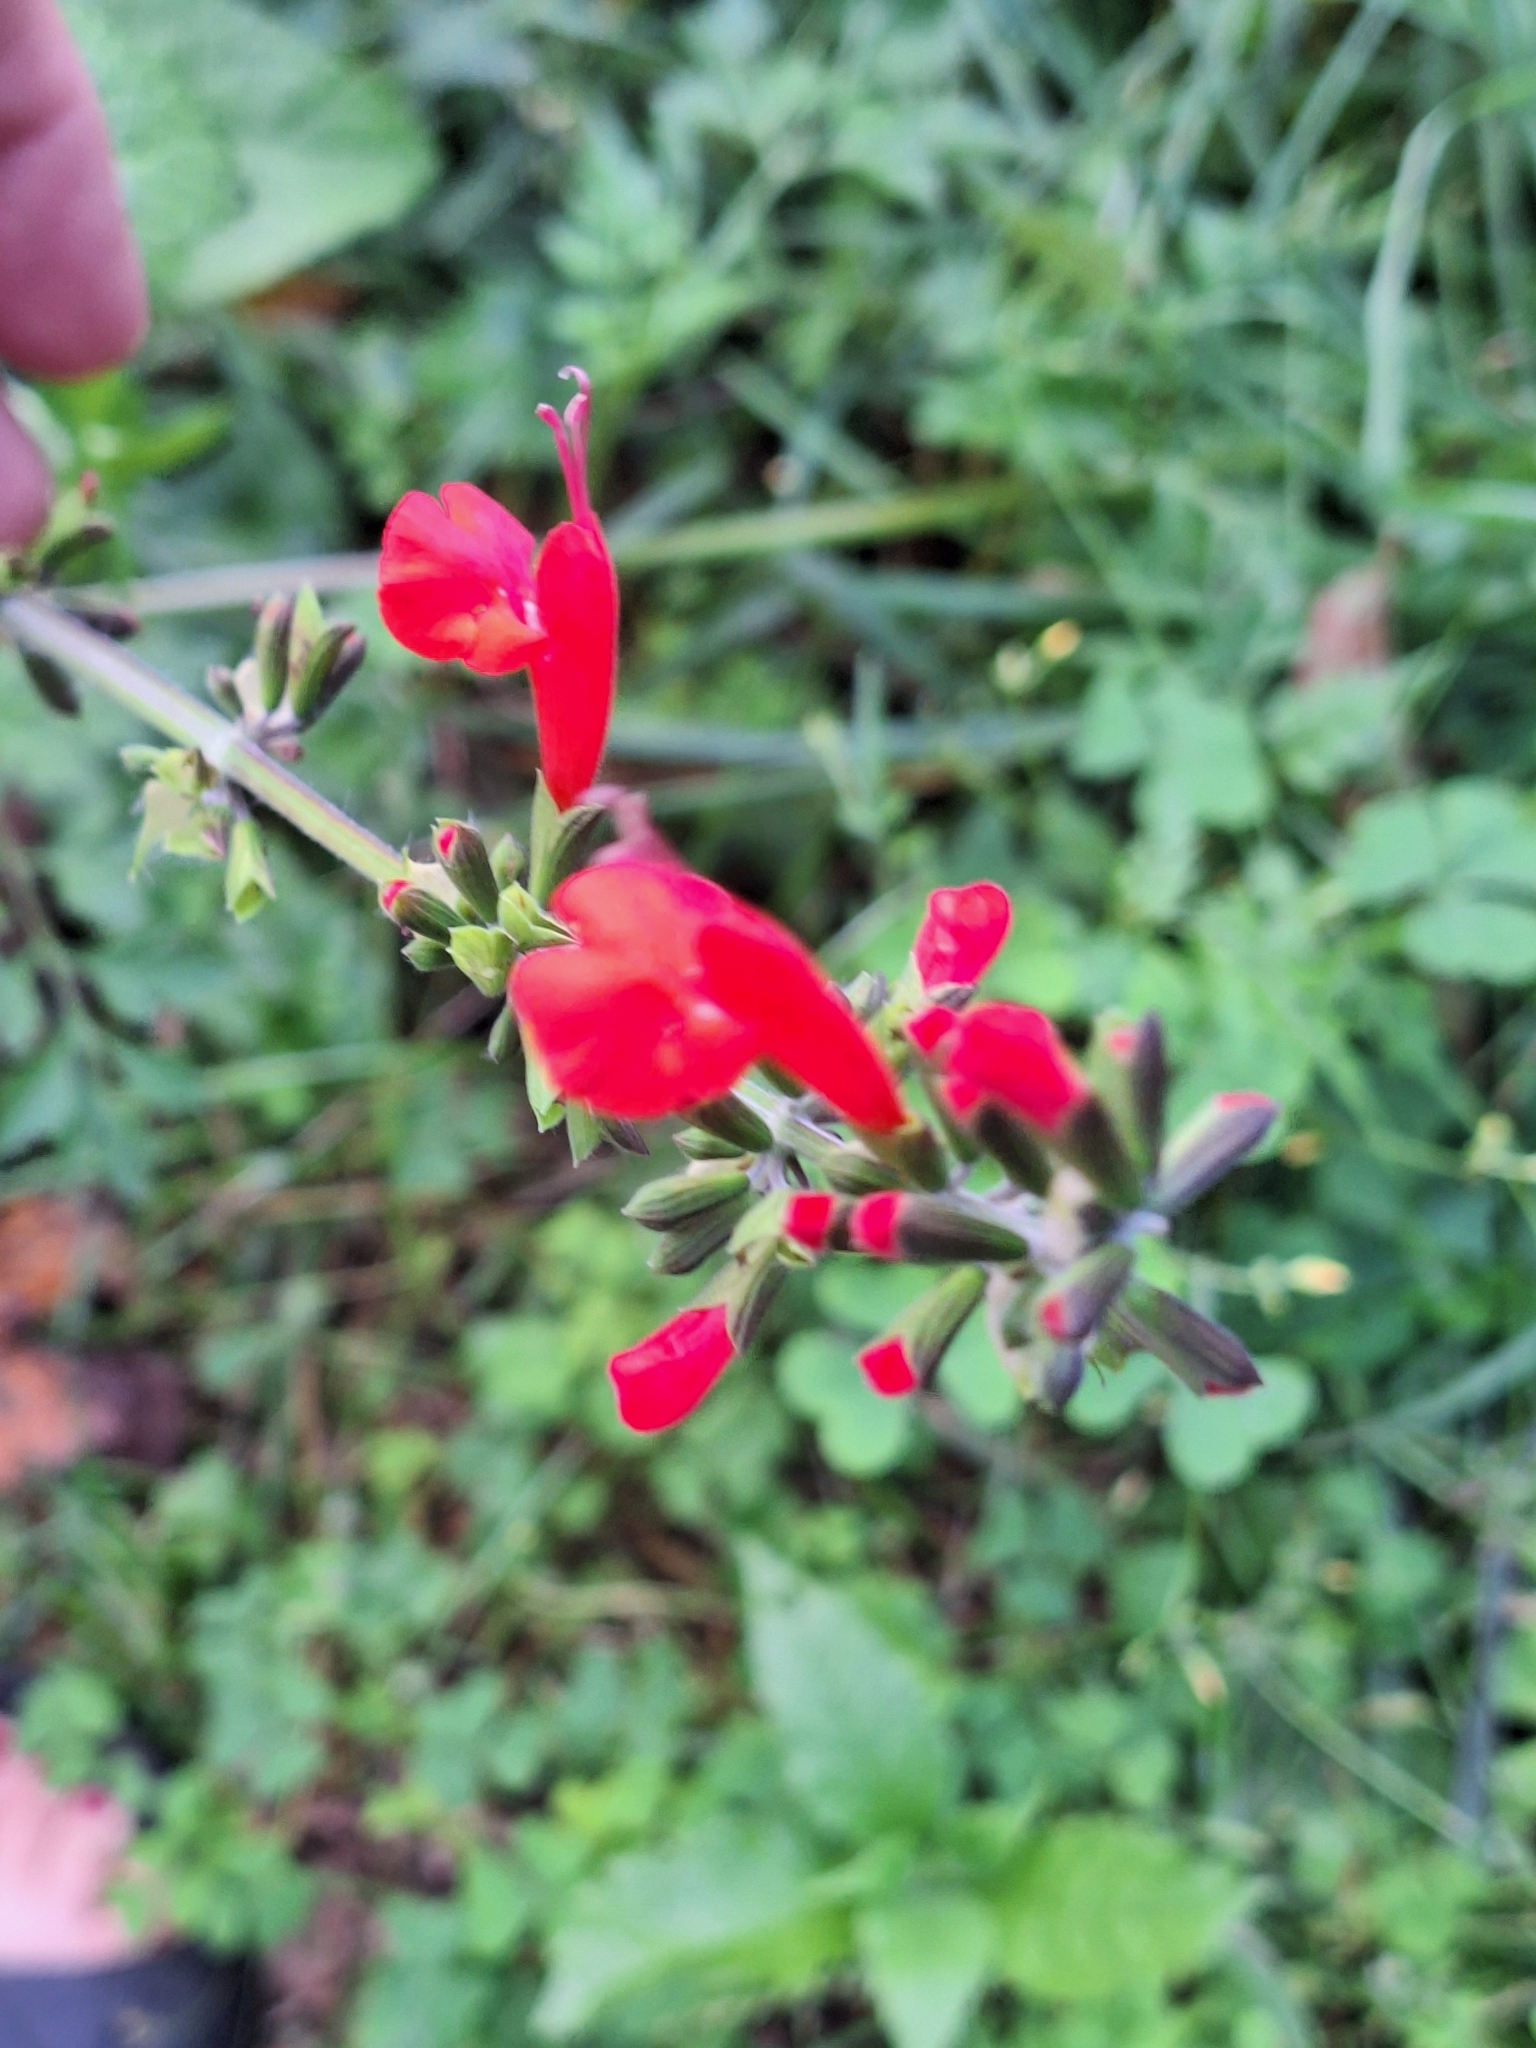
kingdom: Plantae
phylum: Tracheophyta
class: Magnoliopsida
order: Lamiales
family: Lamiaceae
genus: Salvia
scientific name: Salvia coccinea
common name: Blood sage
